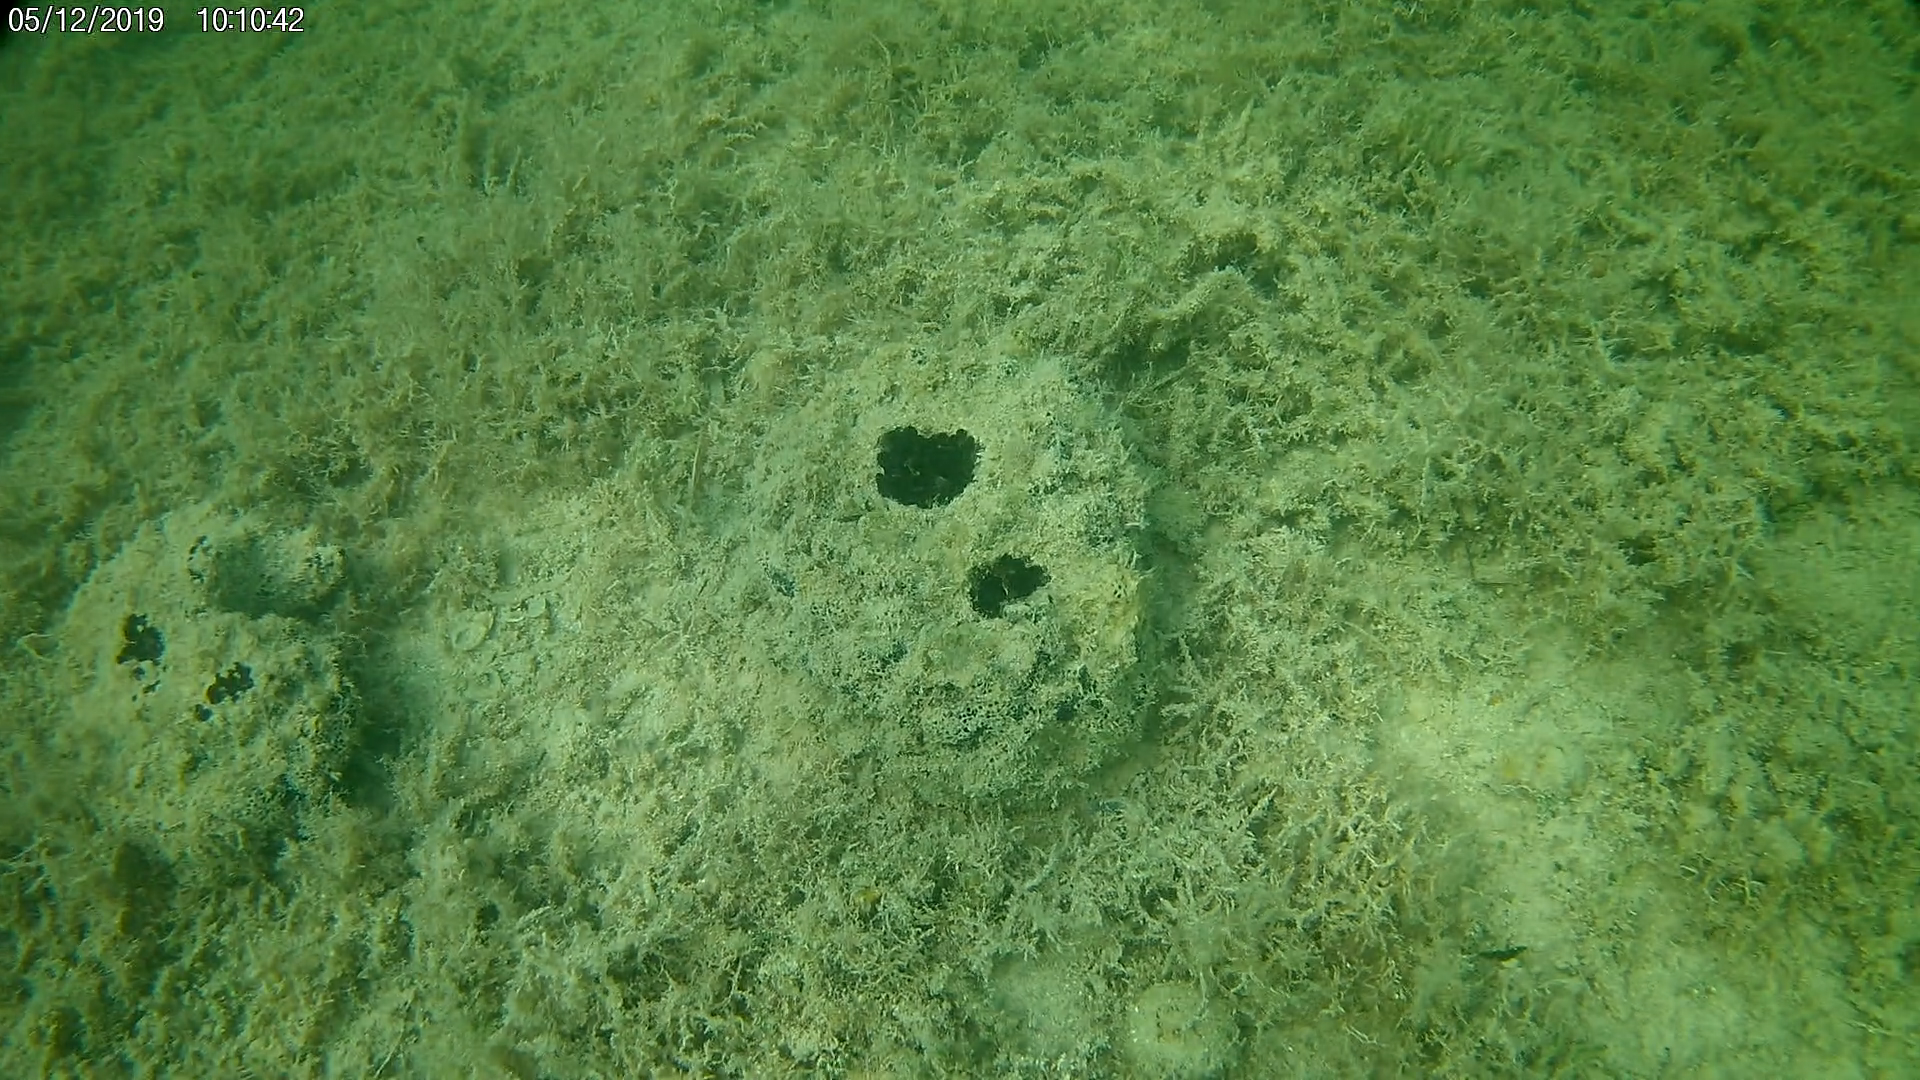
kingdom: Animalia
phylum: Porifera
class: Demospongiae
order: Clionaida
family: Clionaidae
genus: Spheciospongia
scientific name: Spheciospongia vesparium
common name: Manjack
